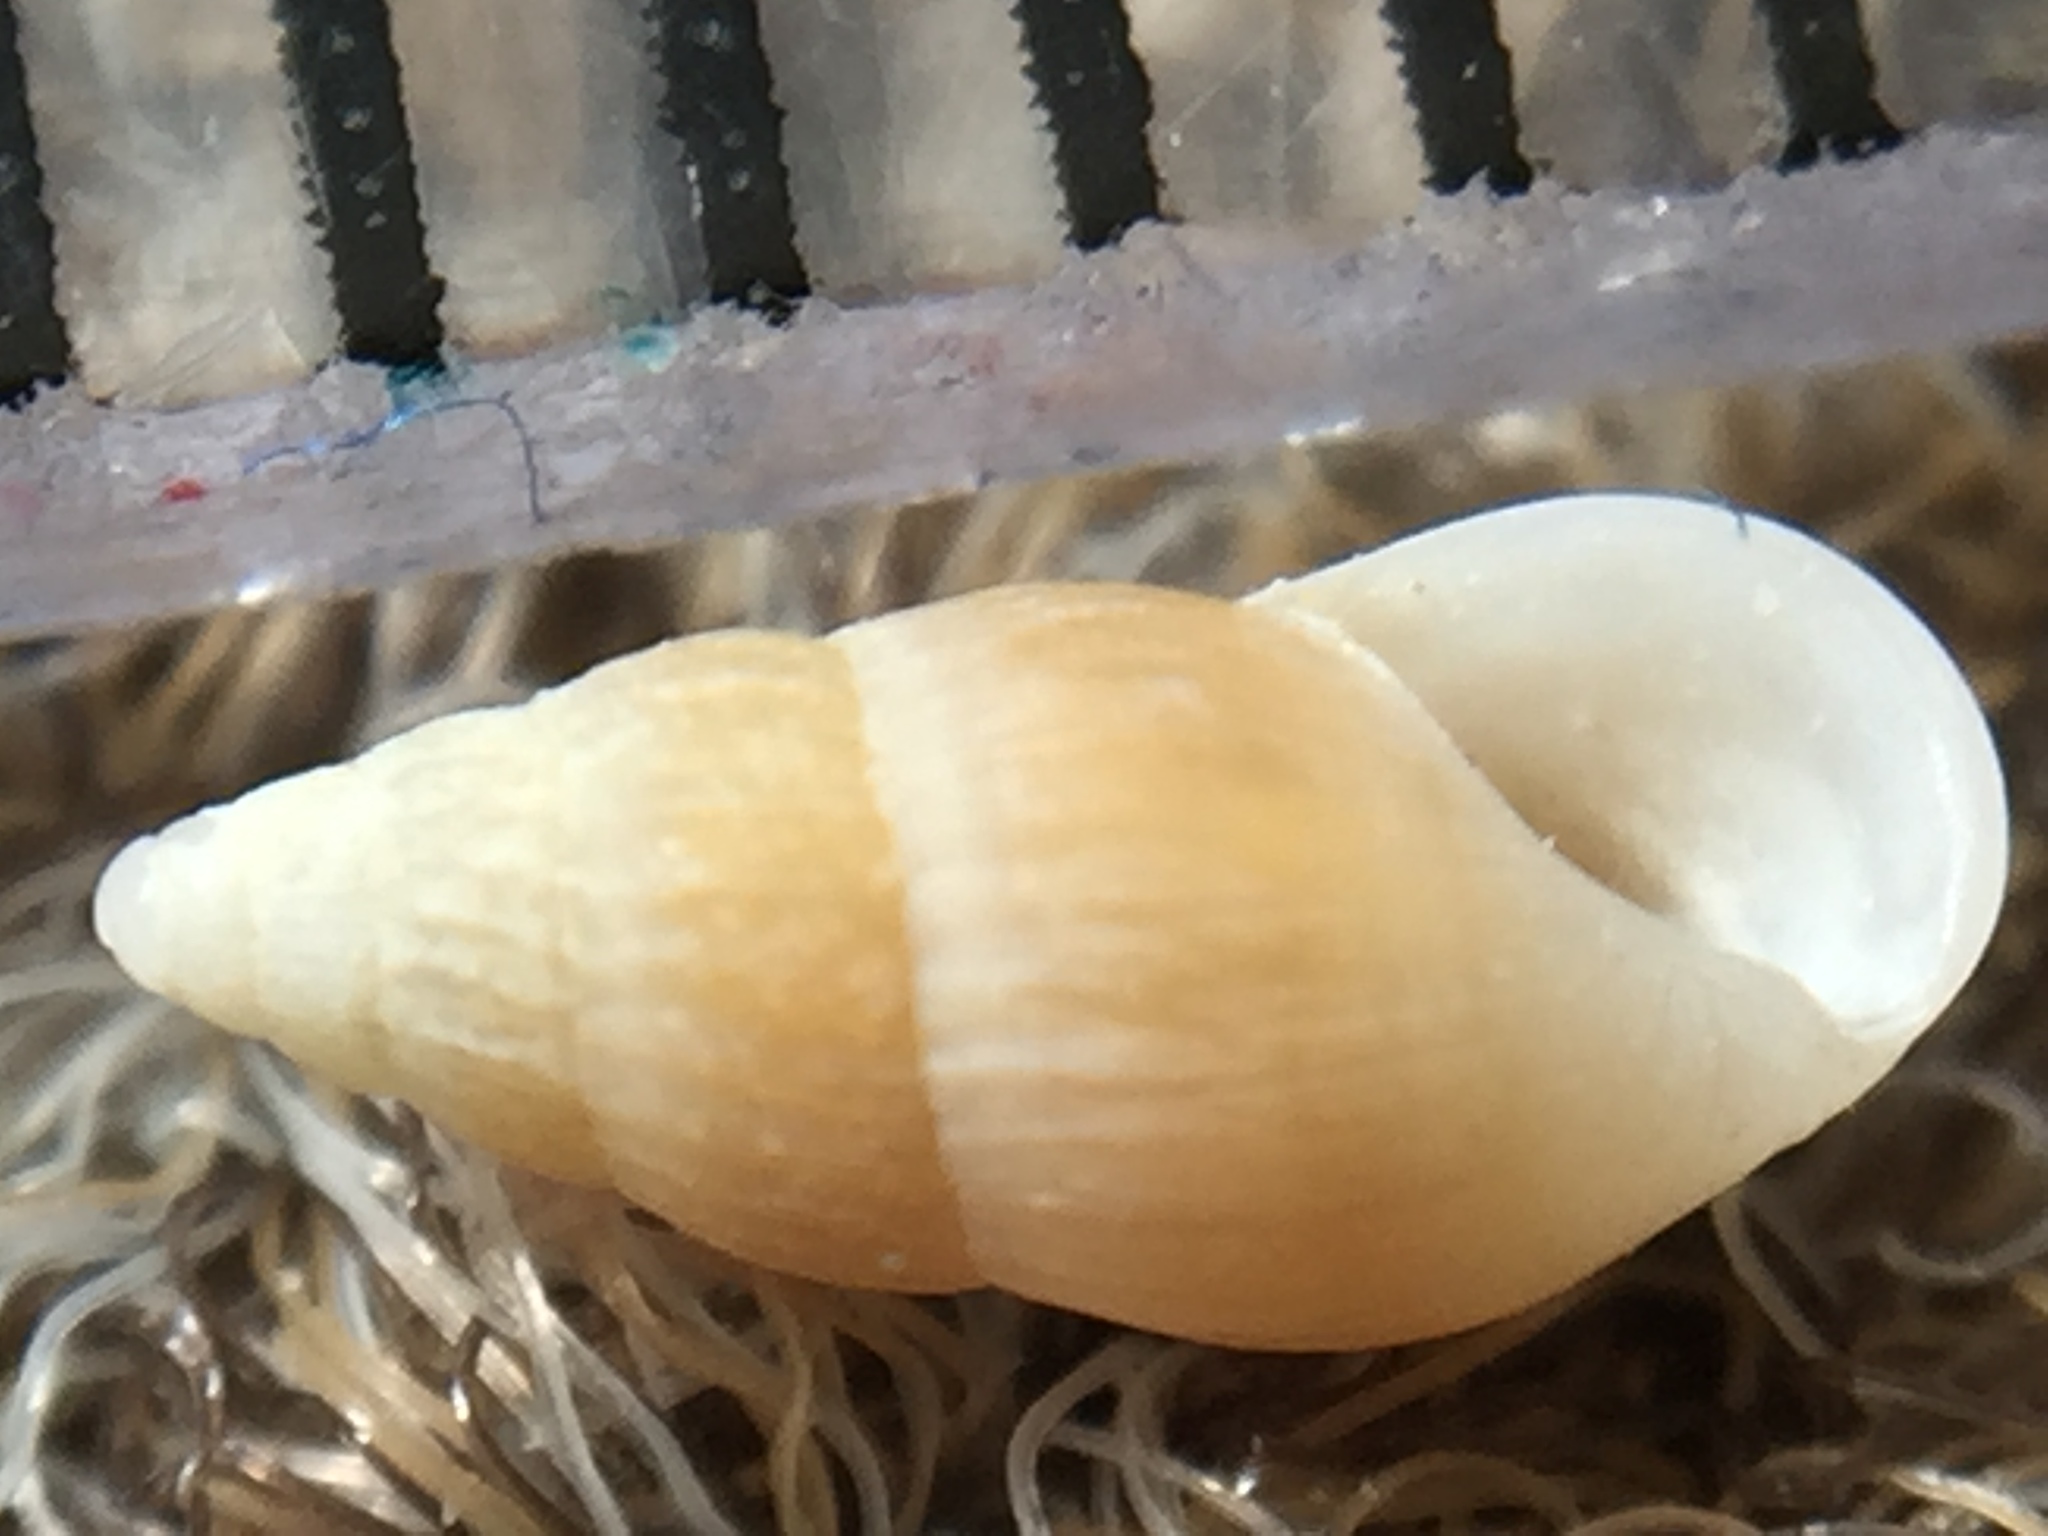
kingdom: Animalia
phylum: Mollusca
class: Gastropoda
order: Littorinimorpha
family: Rissoinidae
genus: Rissoina
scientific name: Rissoina chathamensis
